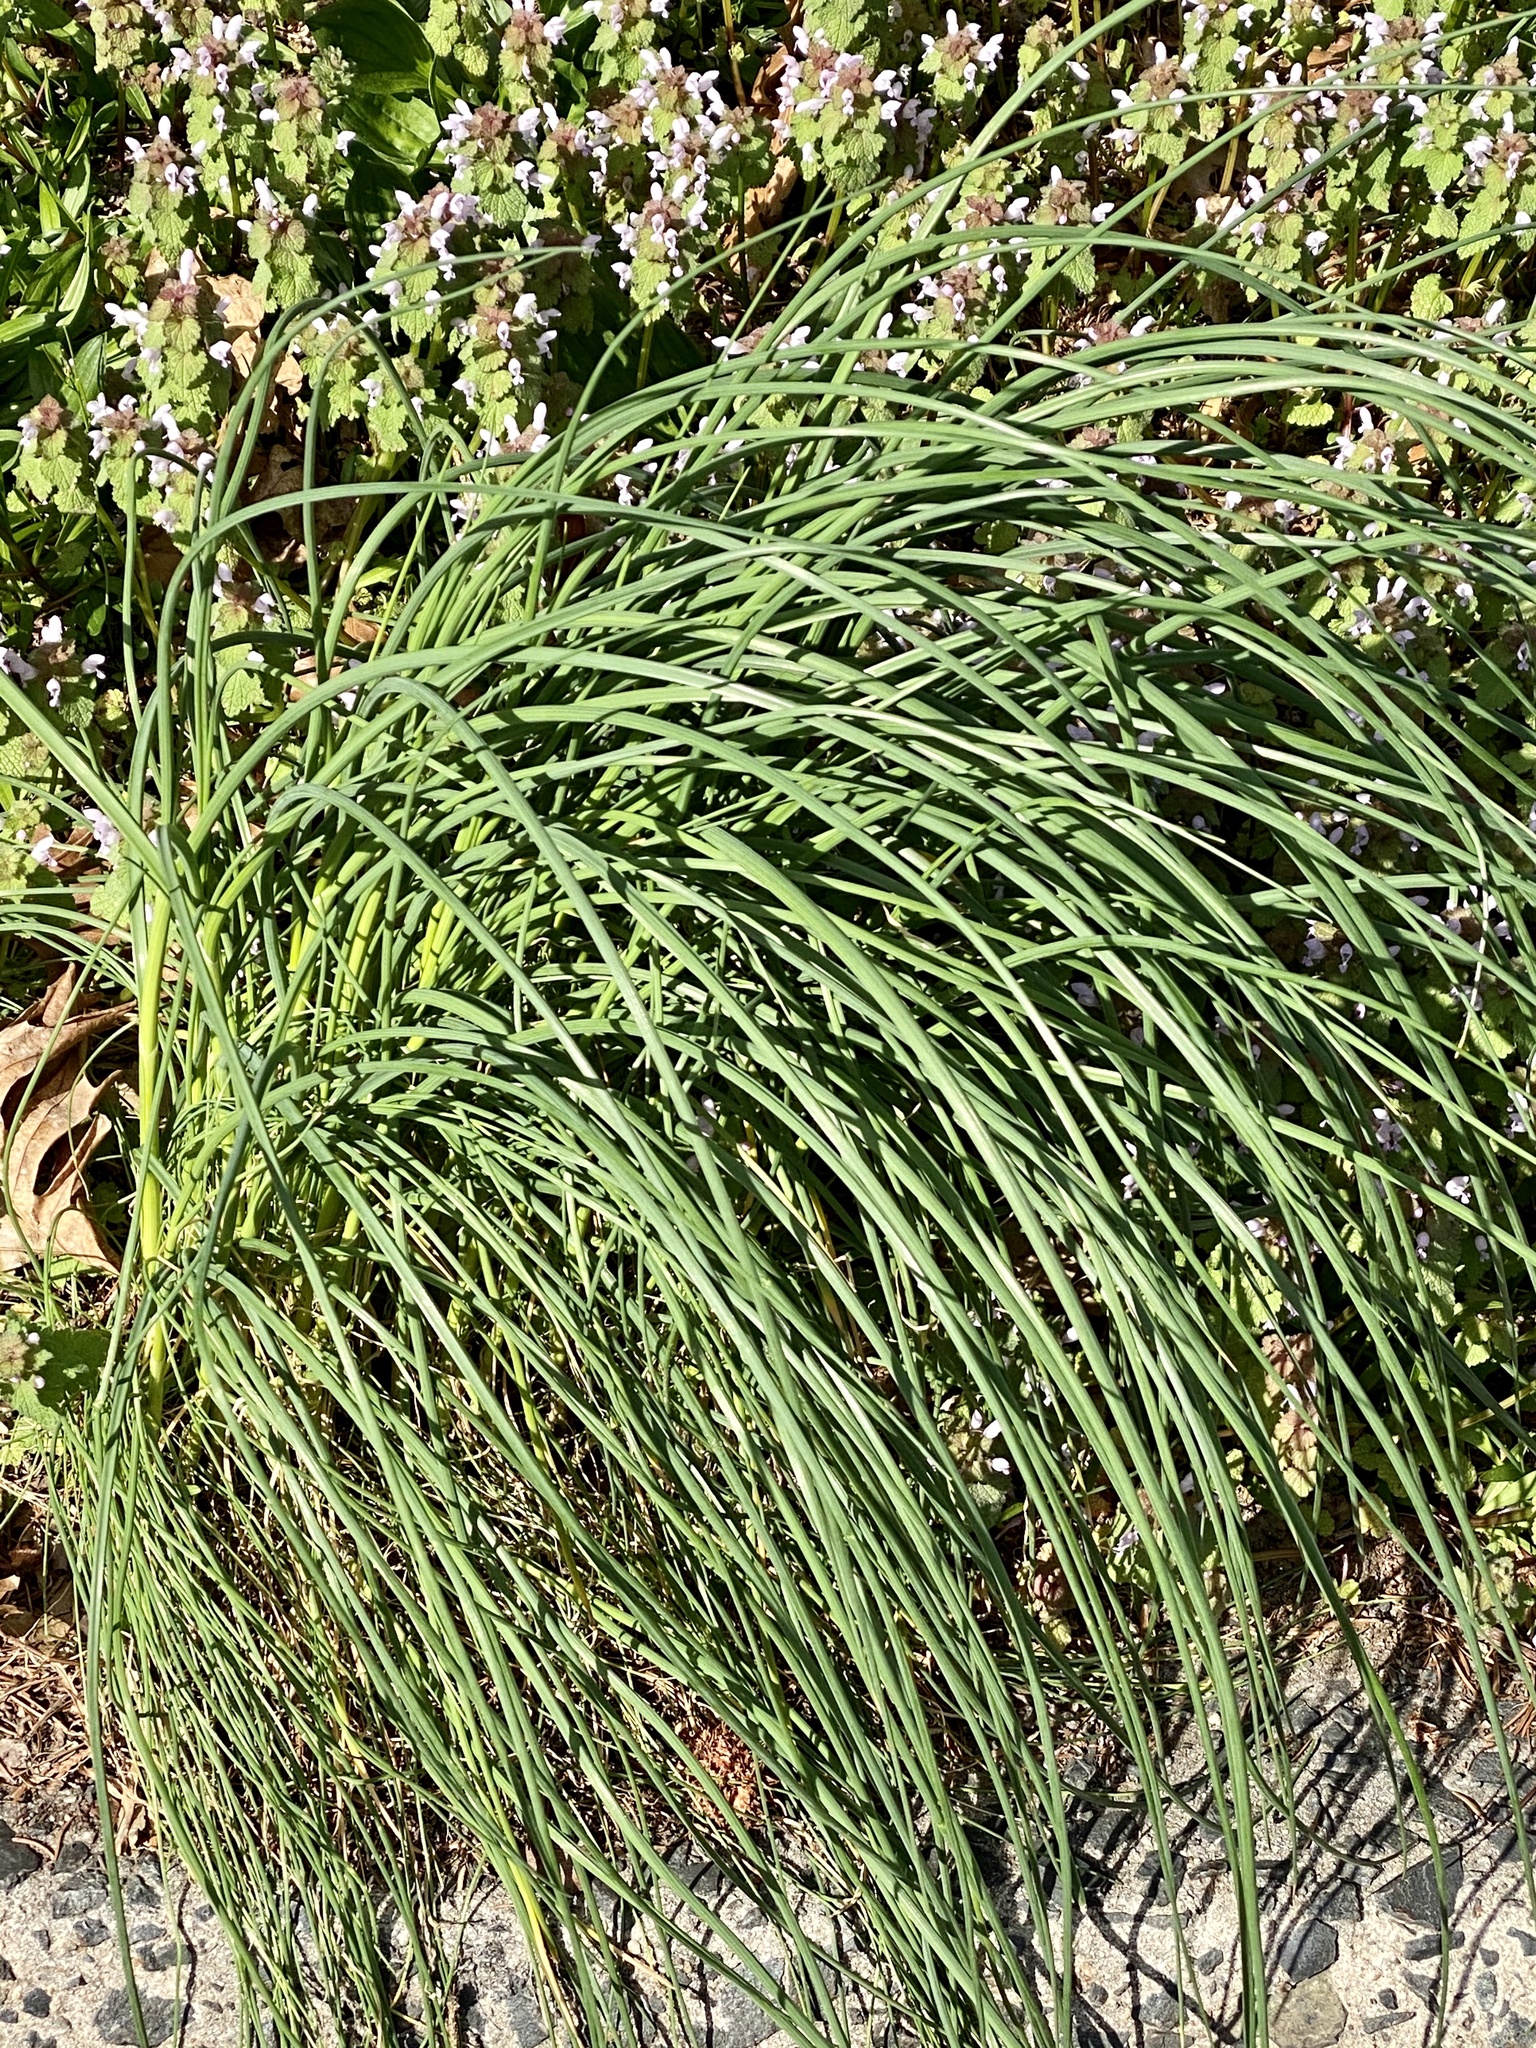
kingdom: Plantae
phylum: Tracheophyta
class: Liliopsida
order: Asparagales
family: Amaryllidaceae
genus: Allium
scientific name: Allium vineale
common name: Crow garlic
